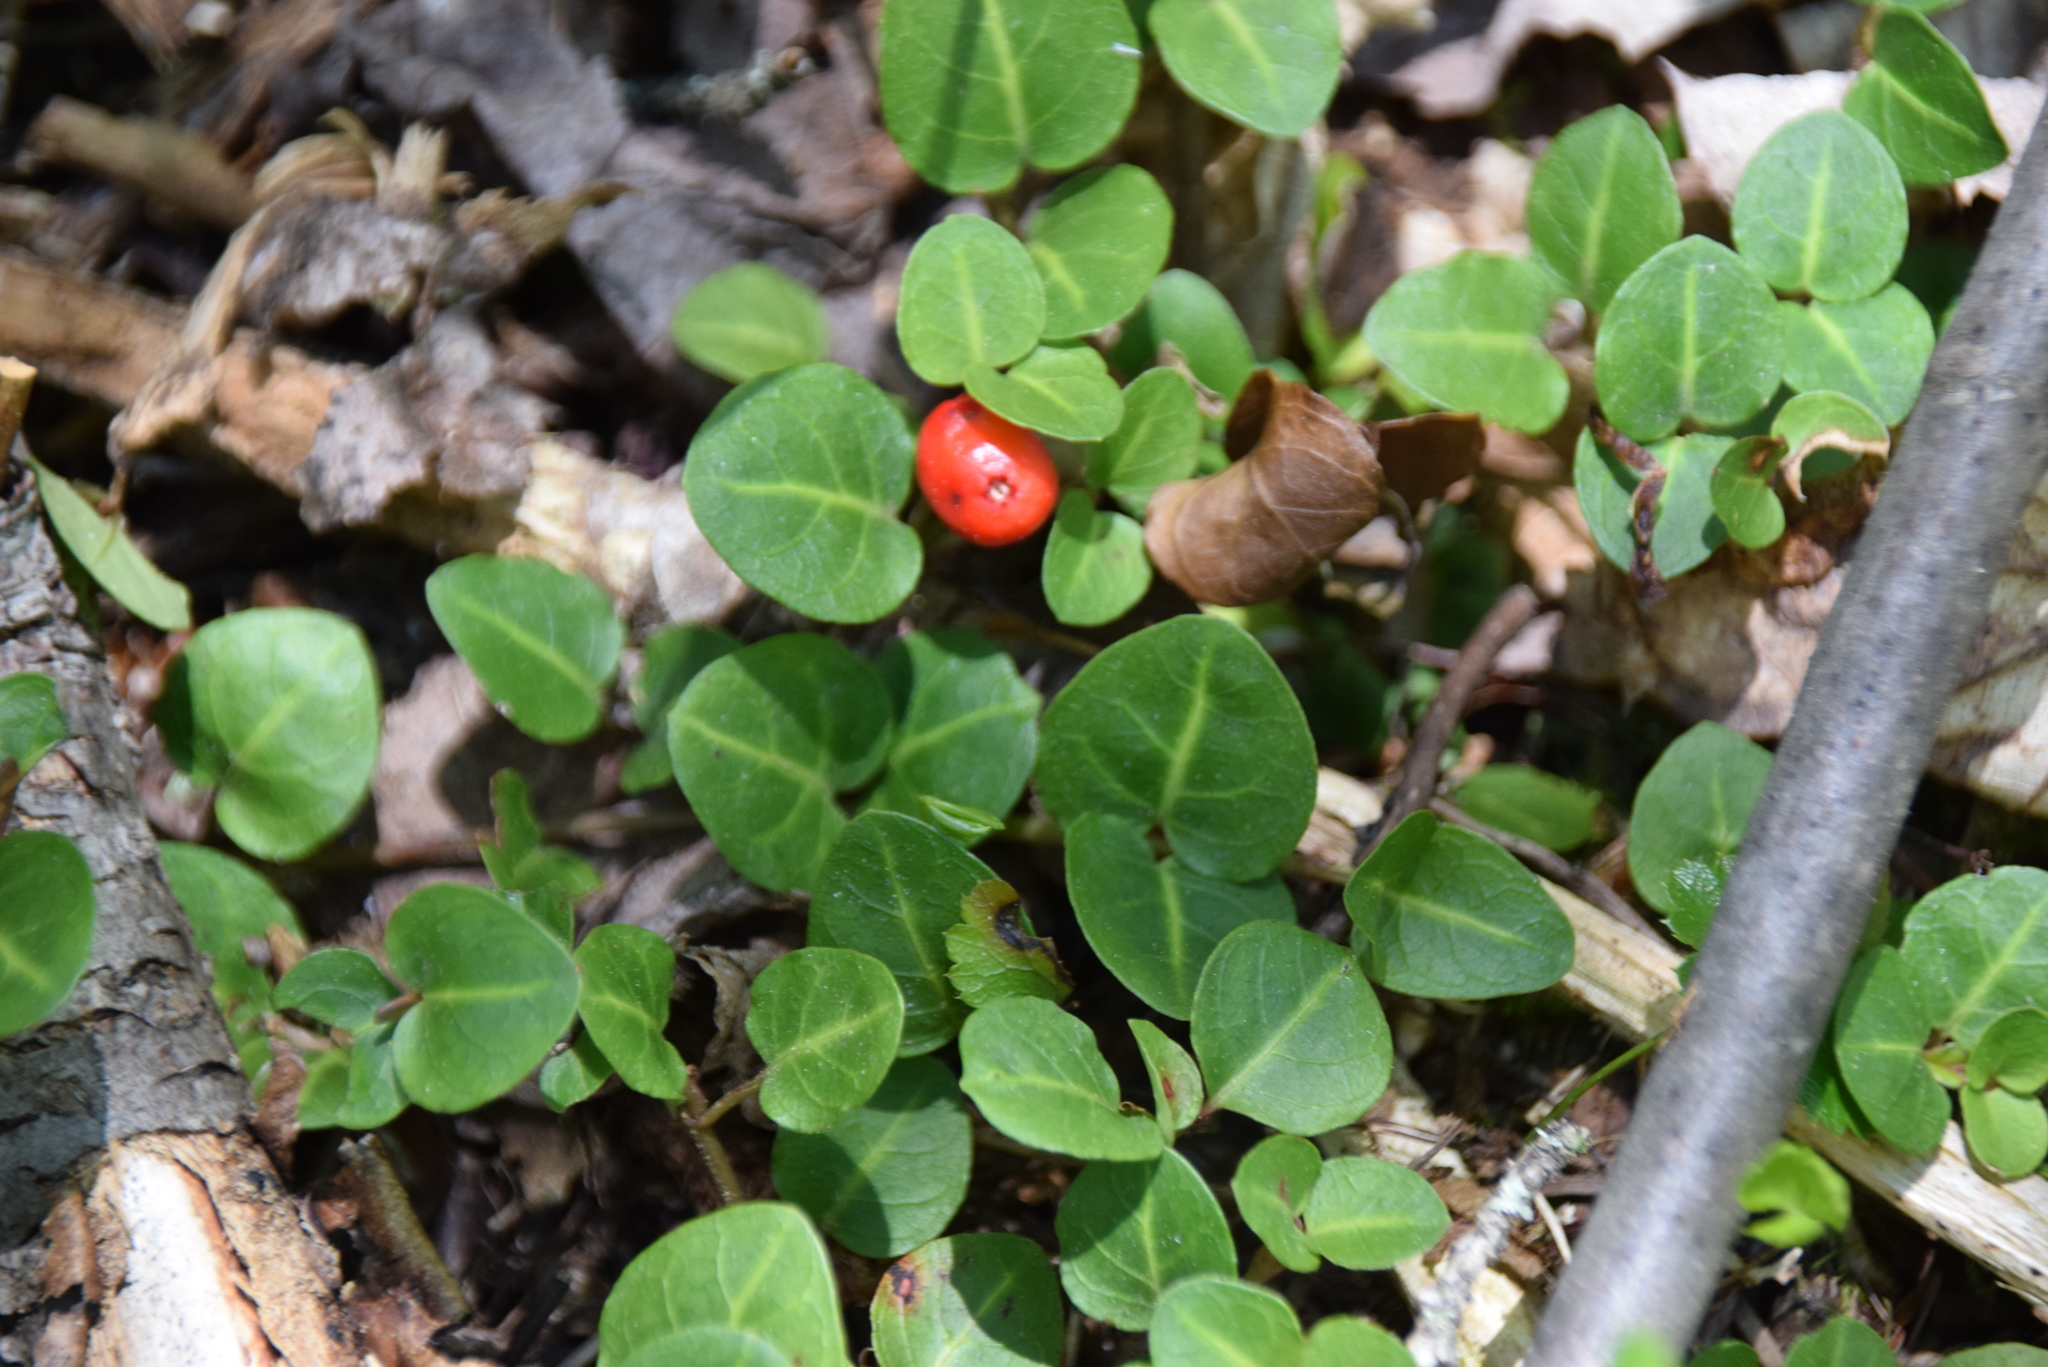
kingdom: Plantae
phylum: Tracheophyta
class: Magnoliopsida
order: Gentianales
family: Rubiaceae
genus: Mitchella
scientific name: Mitchella repens
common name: Partridge-berry
